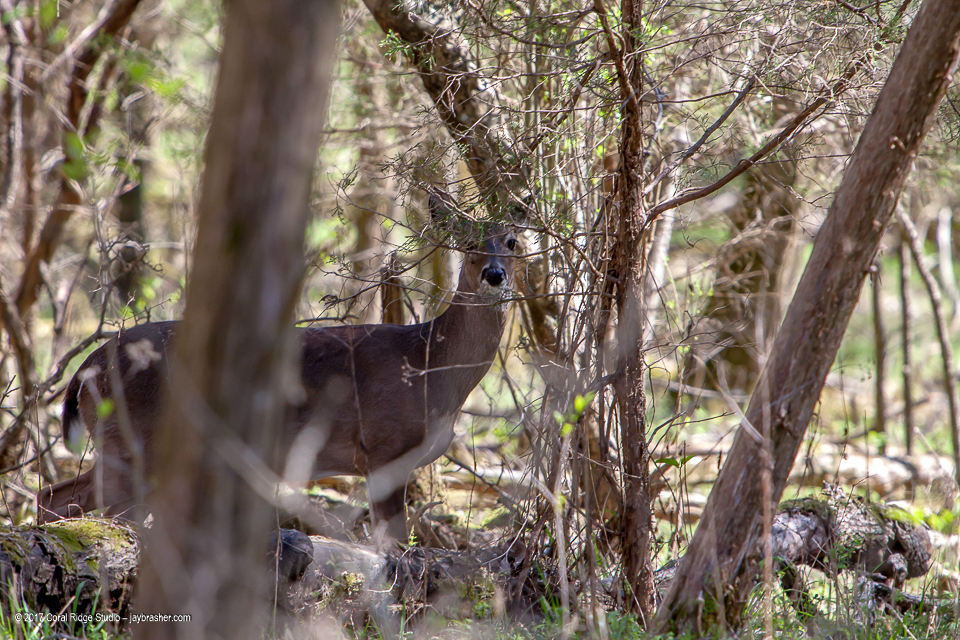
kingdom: Animalia
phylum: Chordata
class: Mammalia
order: Artiodactyla
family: Cervidae
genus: Odocoileus
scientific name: Odocoileus virginianus
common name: White-tailed deer
